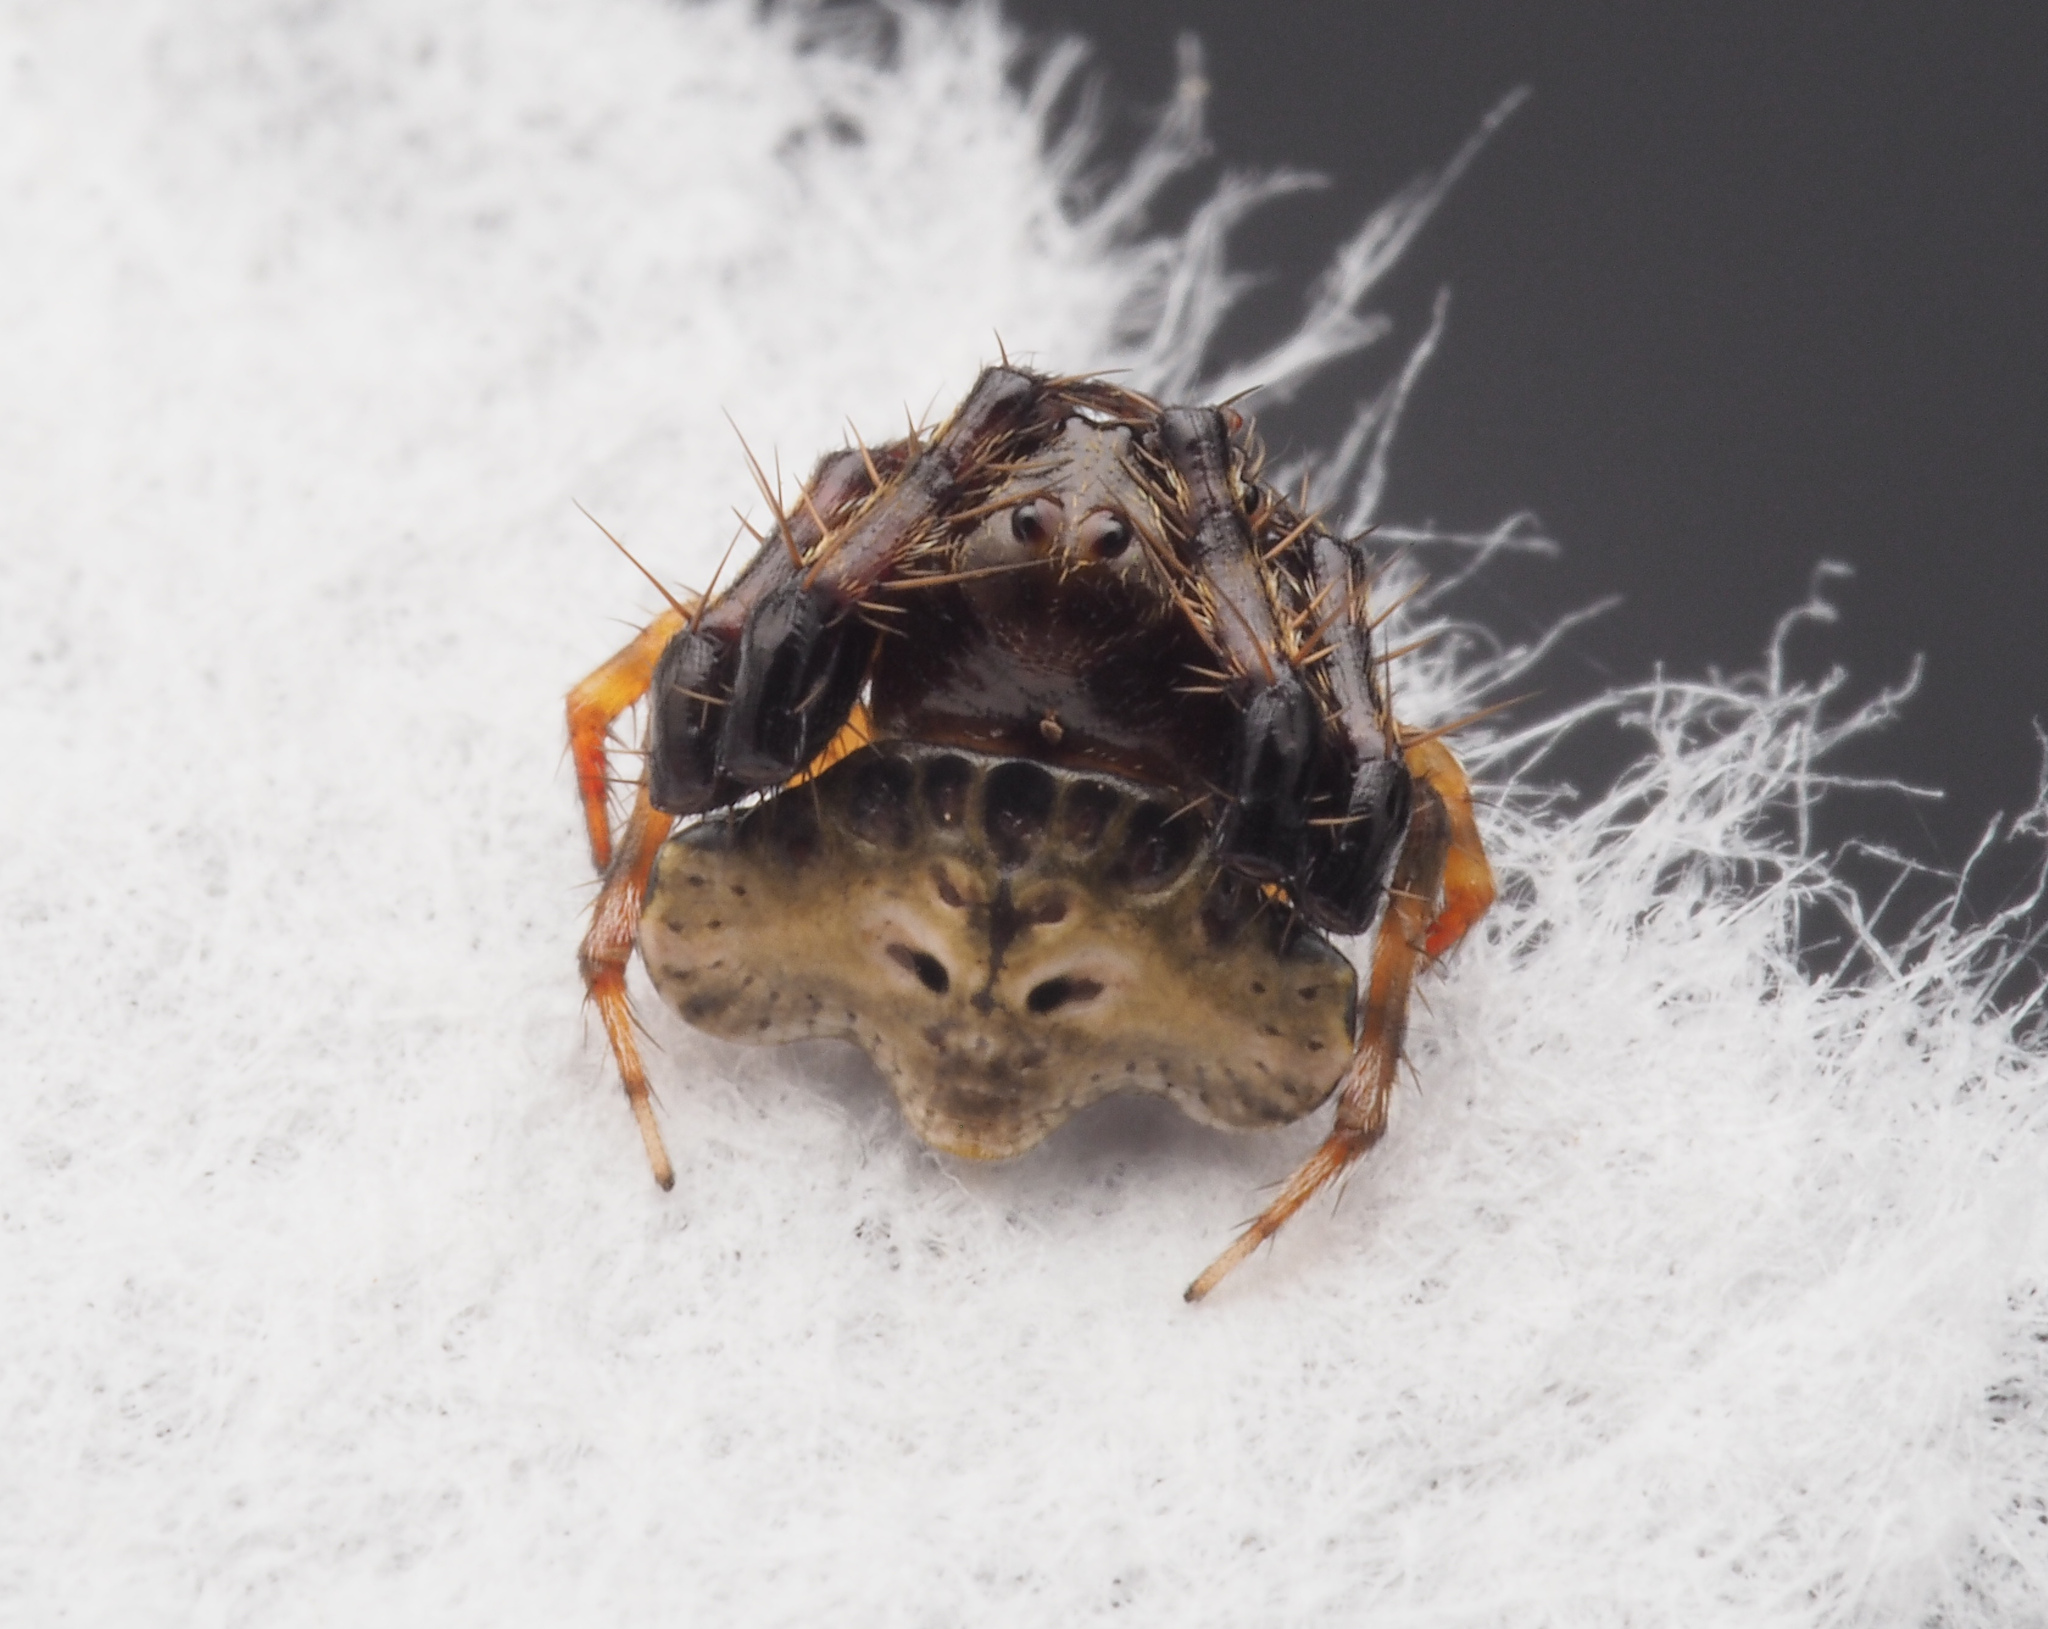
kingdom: Animalia
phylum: Arthropoda
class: Arachnida
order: Araneae
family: Arkyidae
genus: Arkys
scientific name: Arkys speechleyi
